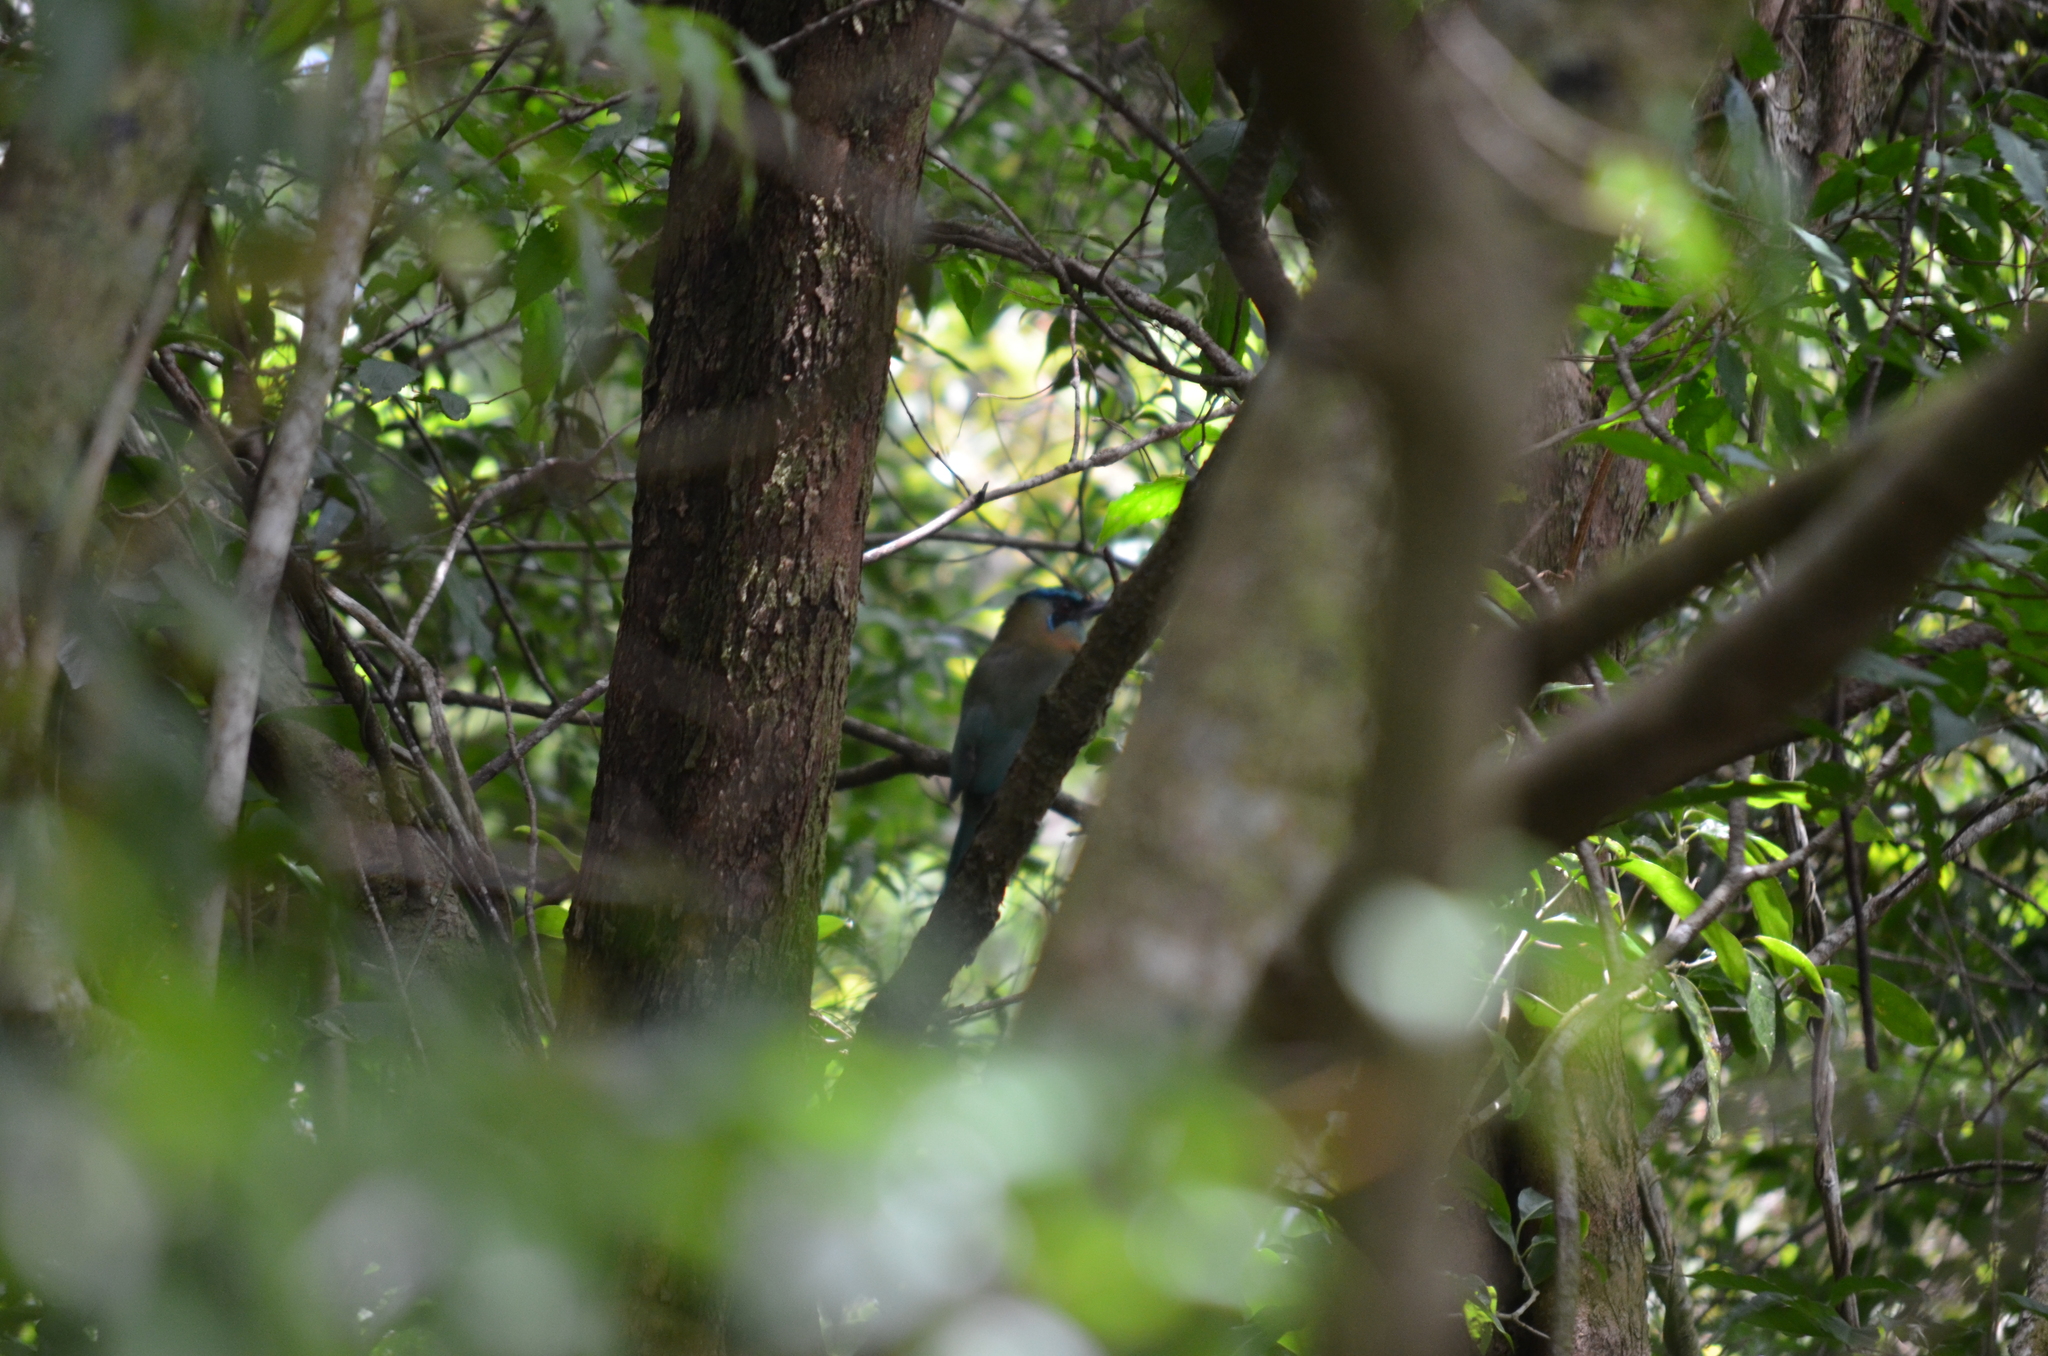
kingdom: Animalia
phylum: Chordata
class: Aves
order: Coraciiformes
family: Momotidae
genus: Momotus
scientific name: Momotus lessonii
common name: Lesson's motmot
